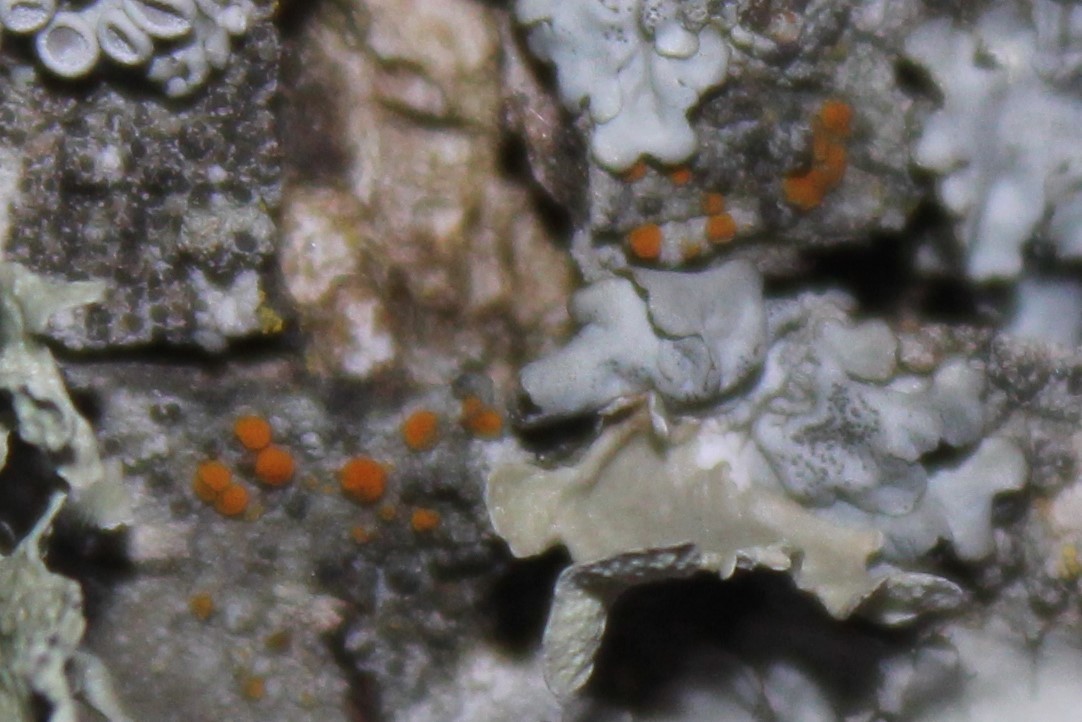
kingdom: Fungi
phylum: Ascomycota
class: Lecanoromycetes
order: Teloschistales
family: Teloschistaceae
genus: Opeltia
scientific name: Opeltia flavorubescens
